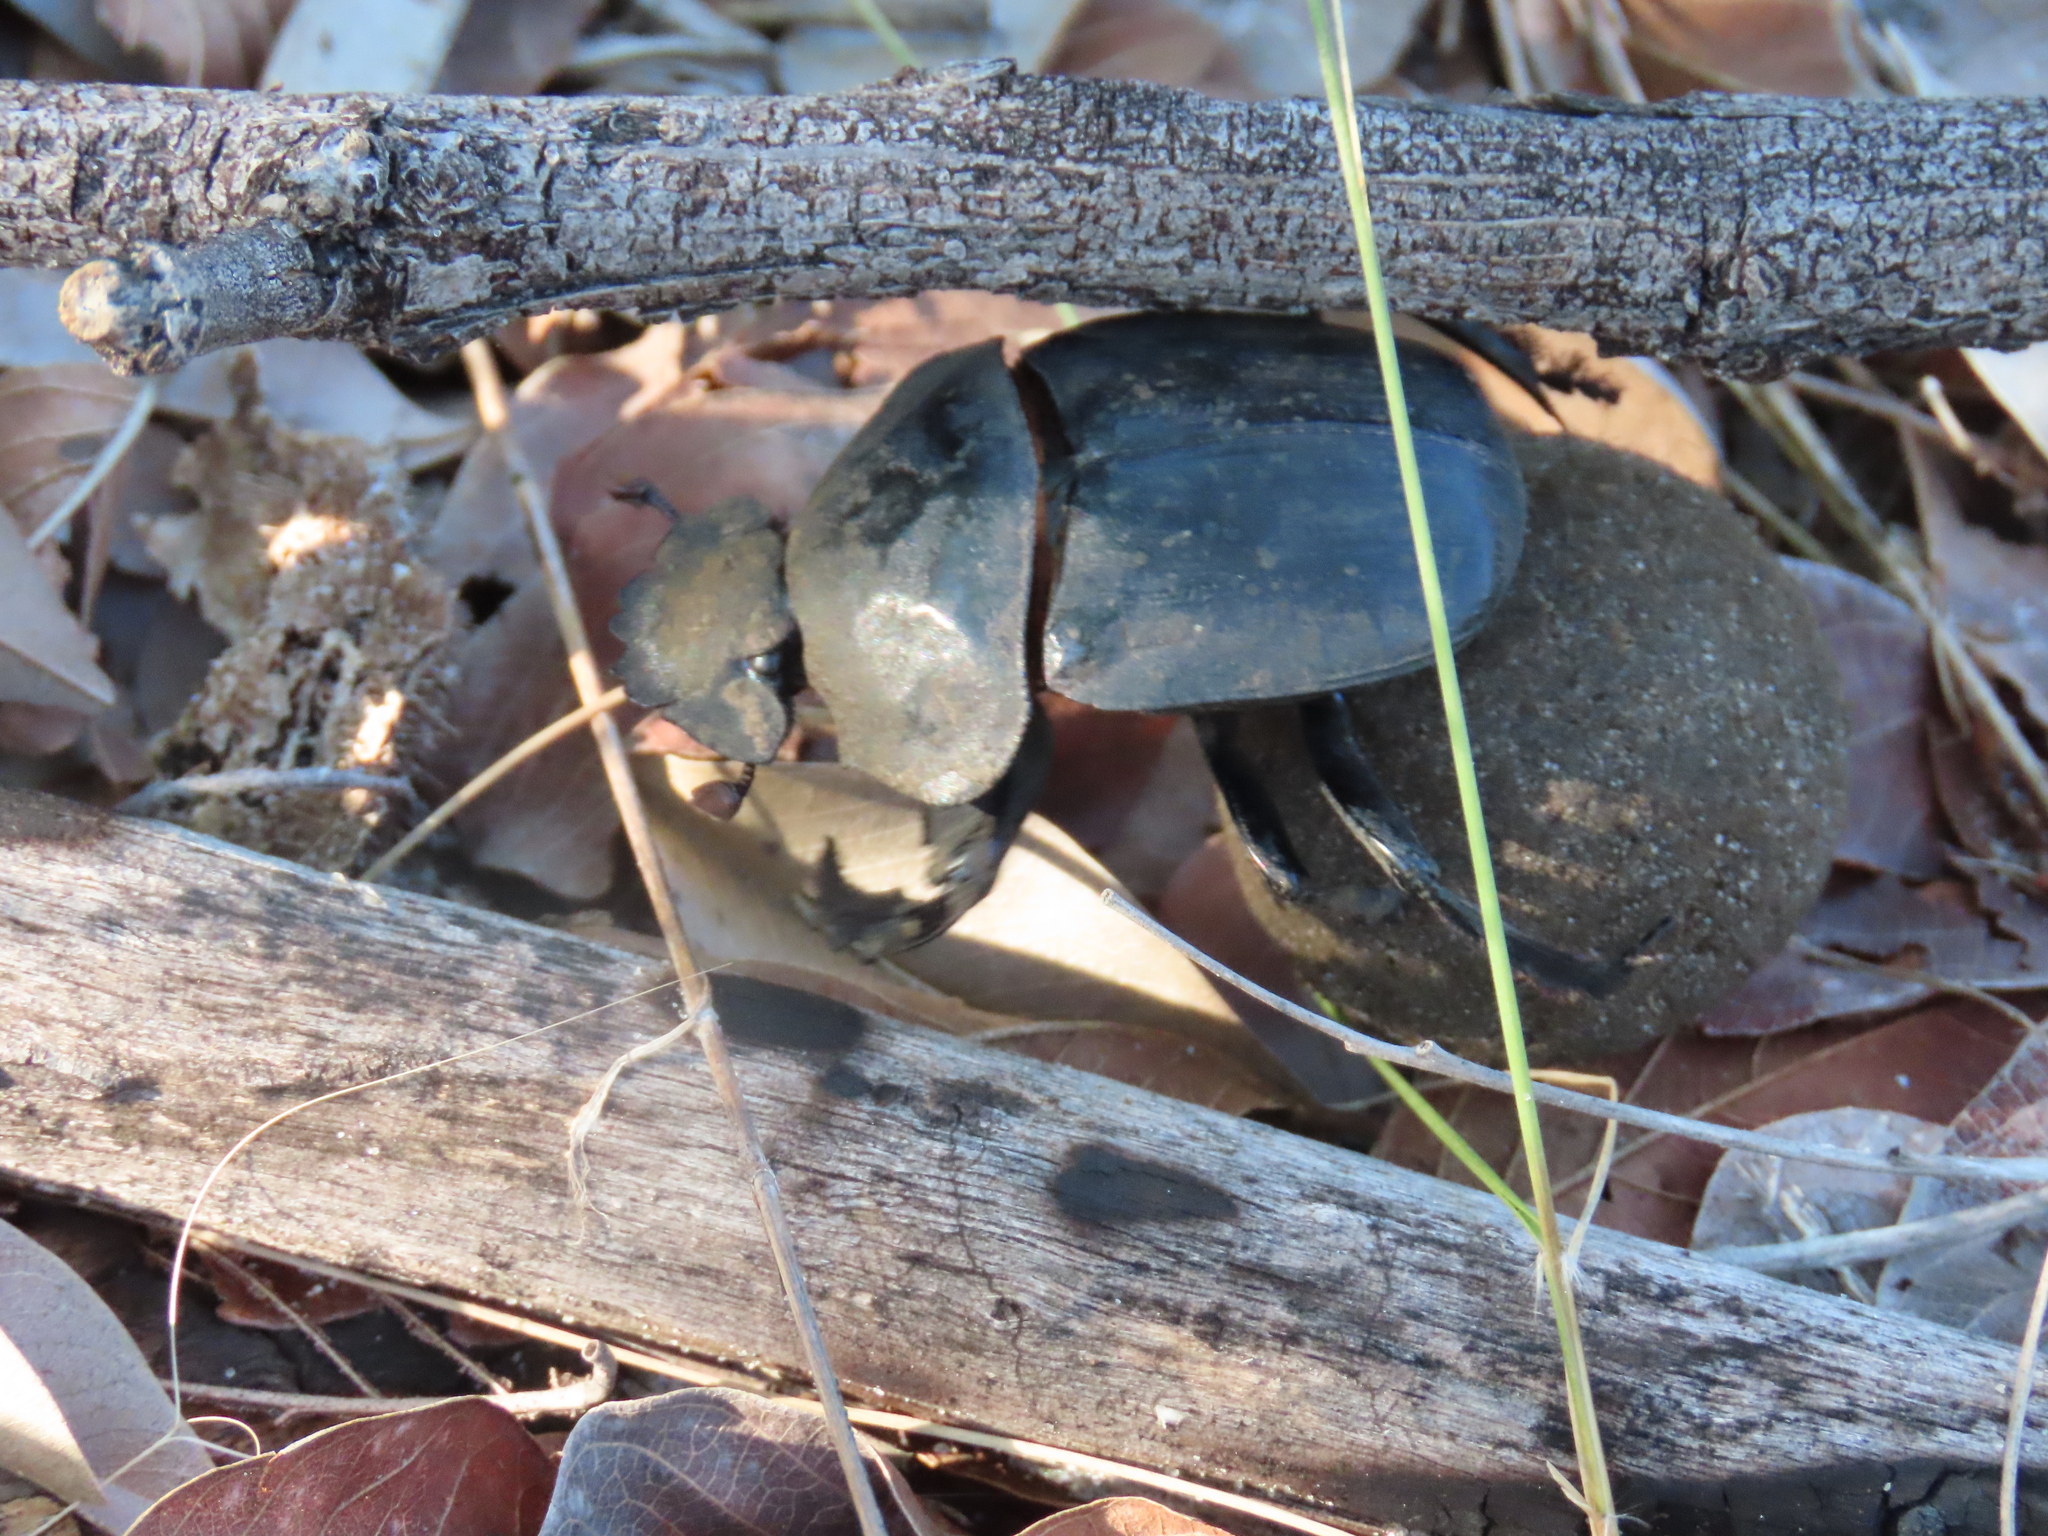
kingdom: Animalia
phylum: Arthropoda
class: Insecta
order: Coleoptera
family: Scarabaeidae
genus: Pachylomera
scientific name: Pachylomera femoralis
